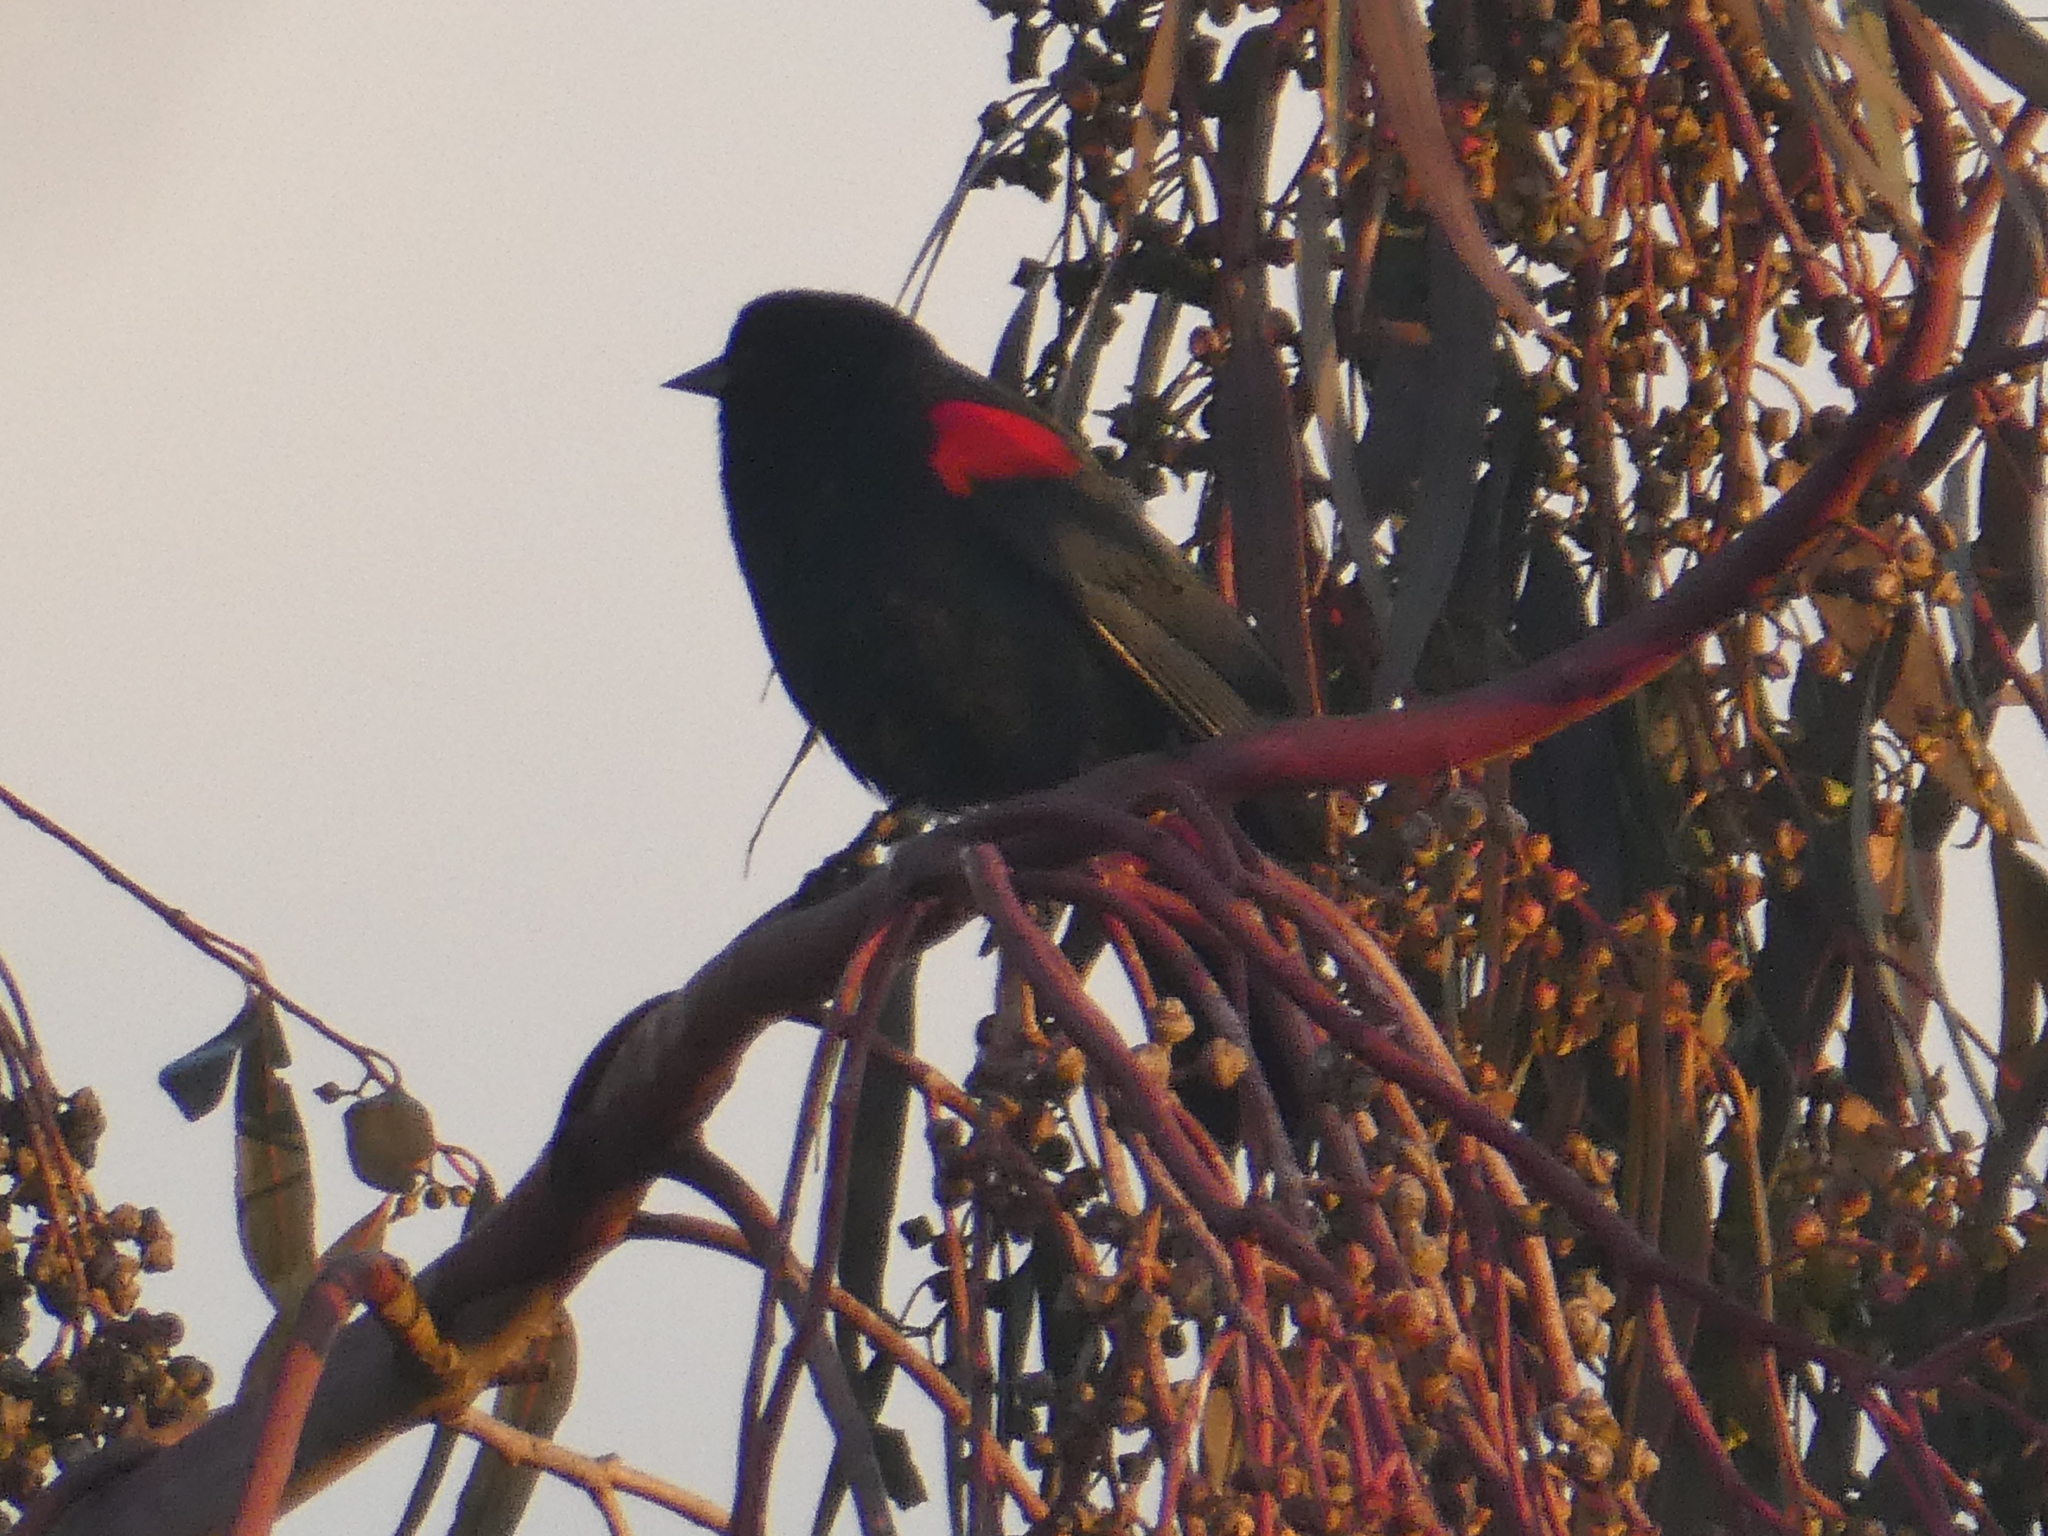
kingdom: Animalia
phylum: Chordata
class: Aves
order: Passeriformes
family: Icteridae
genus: Agelaius
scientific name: Agelaius phoeniceus
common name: Red-winged blackbird
